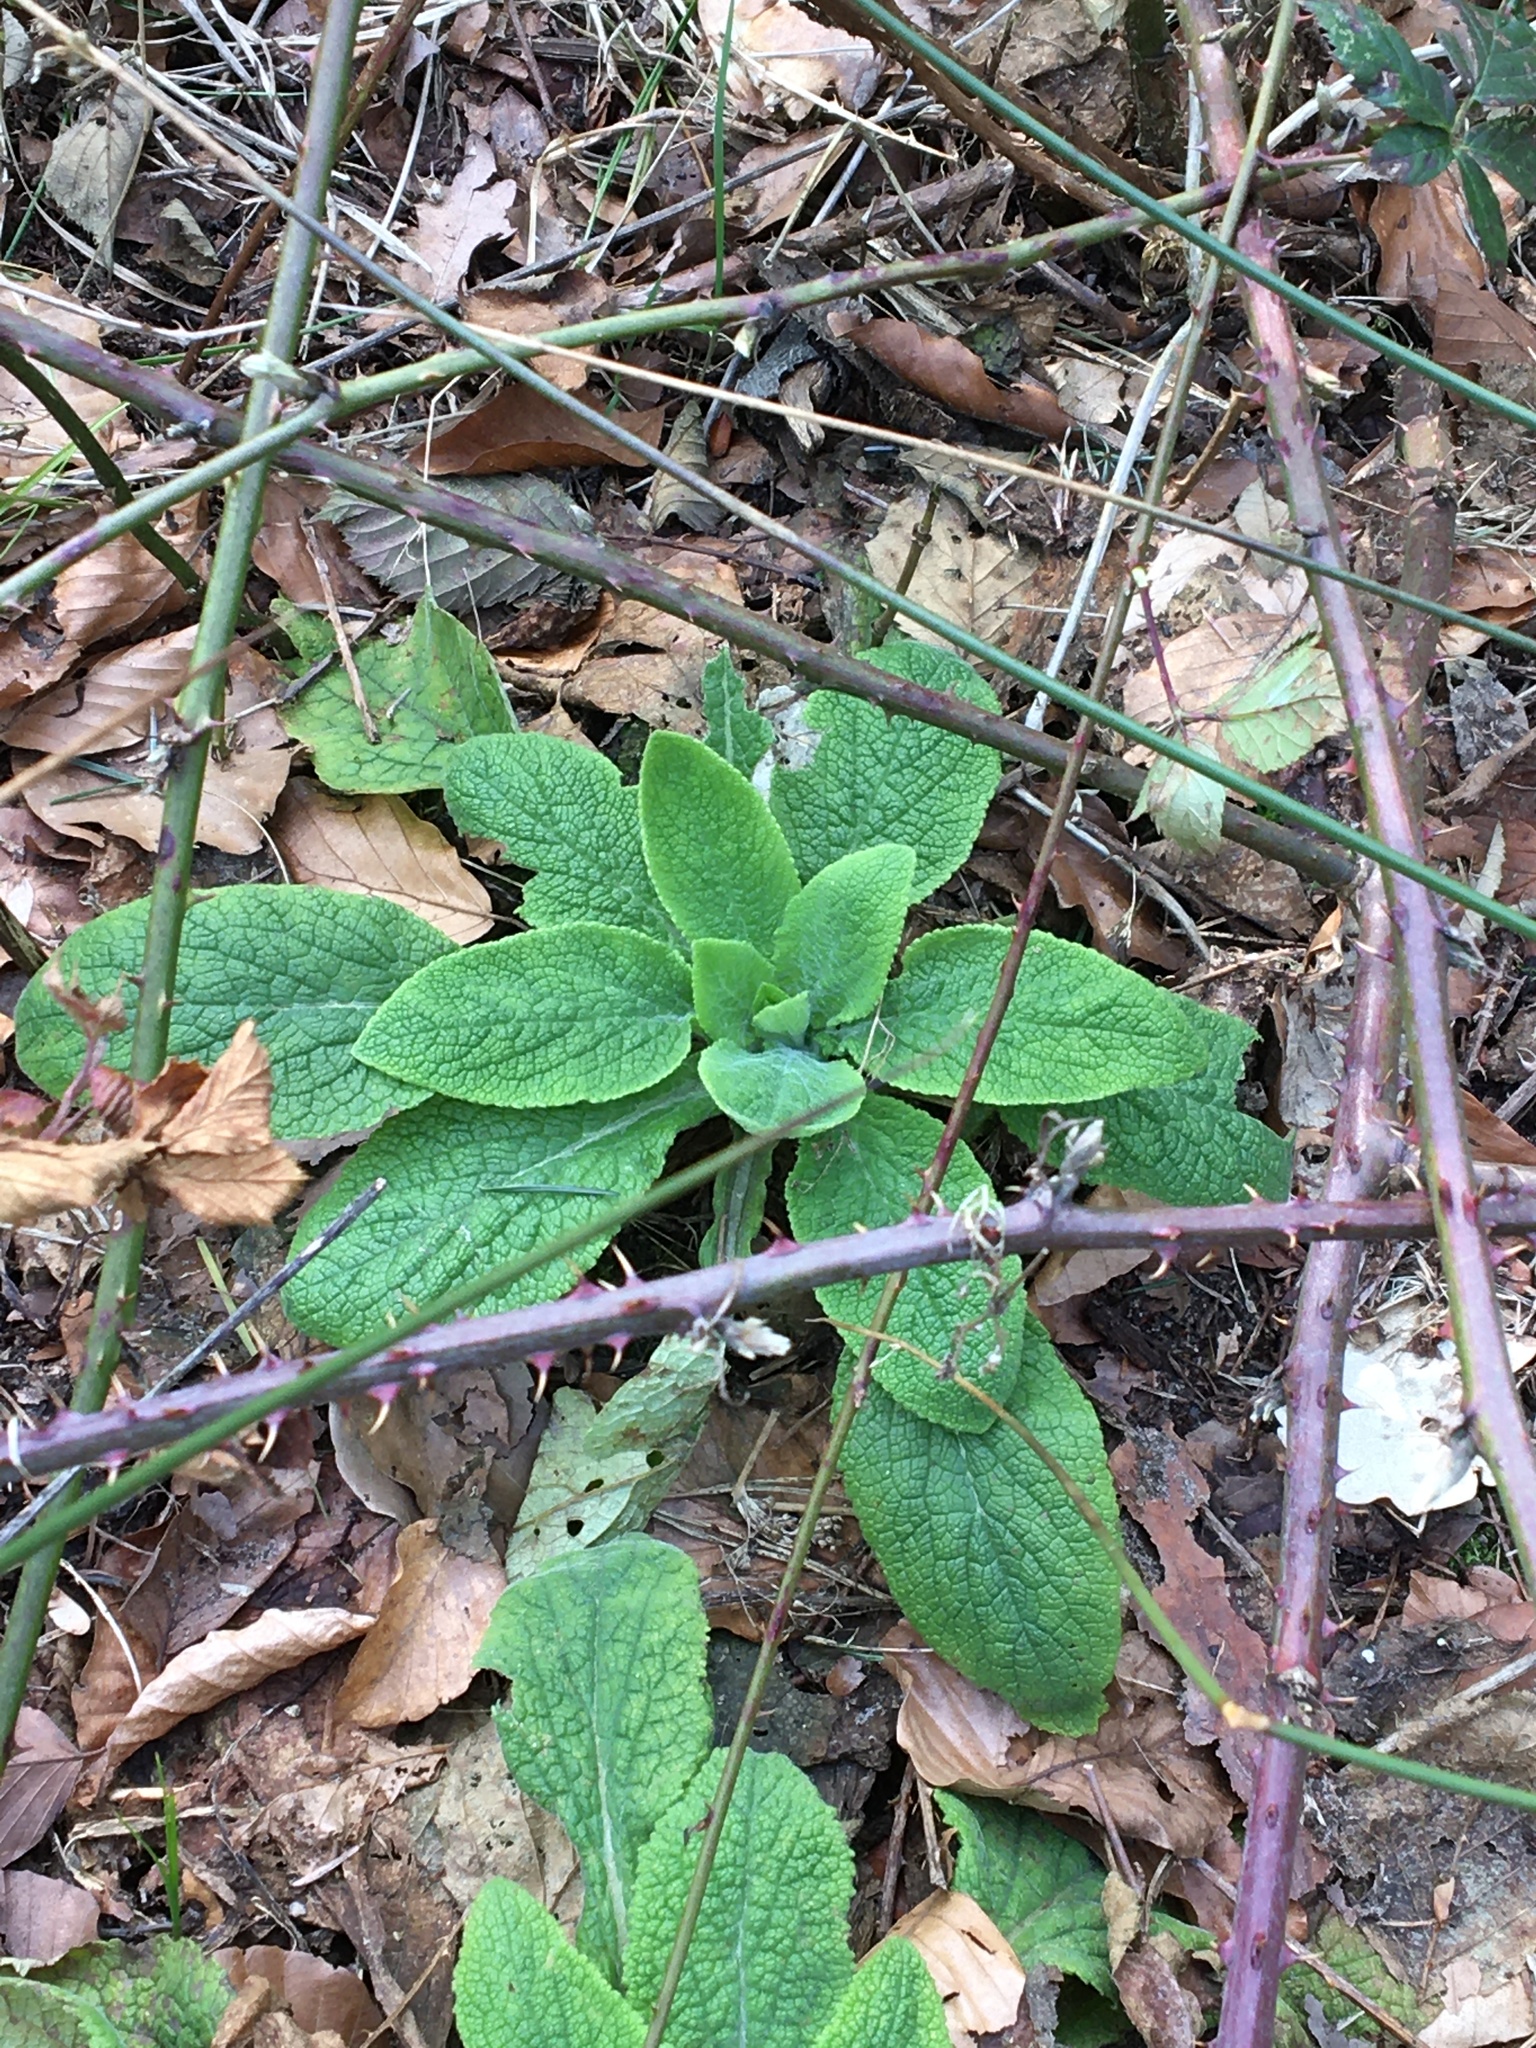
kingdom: Plantae
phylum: Tracheophyta
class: Magnoliopsida
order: Lamiales
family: Plantaginaceae
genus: Digitalis
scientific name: Digitalis purpurea
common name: Foxglove
